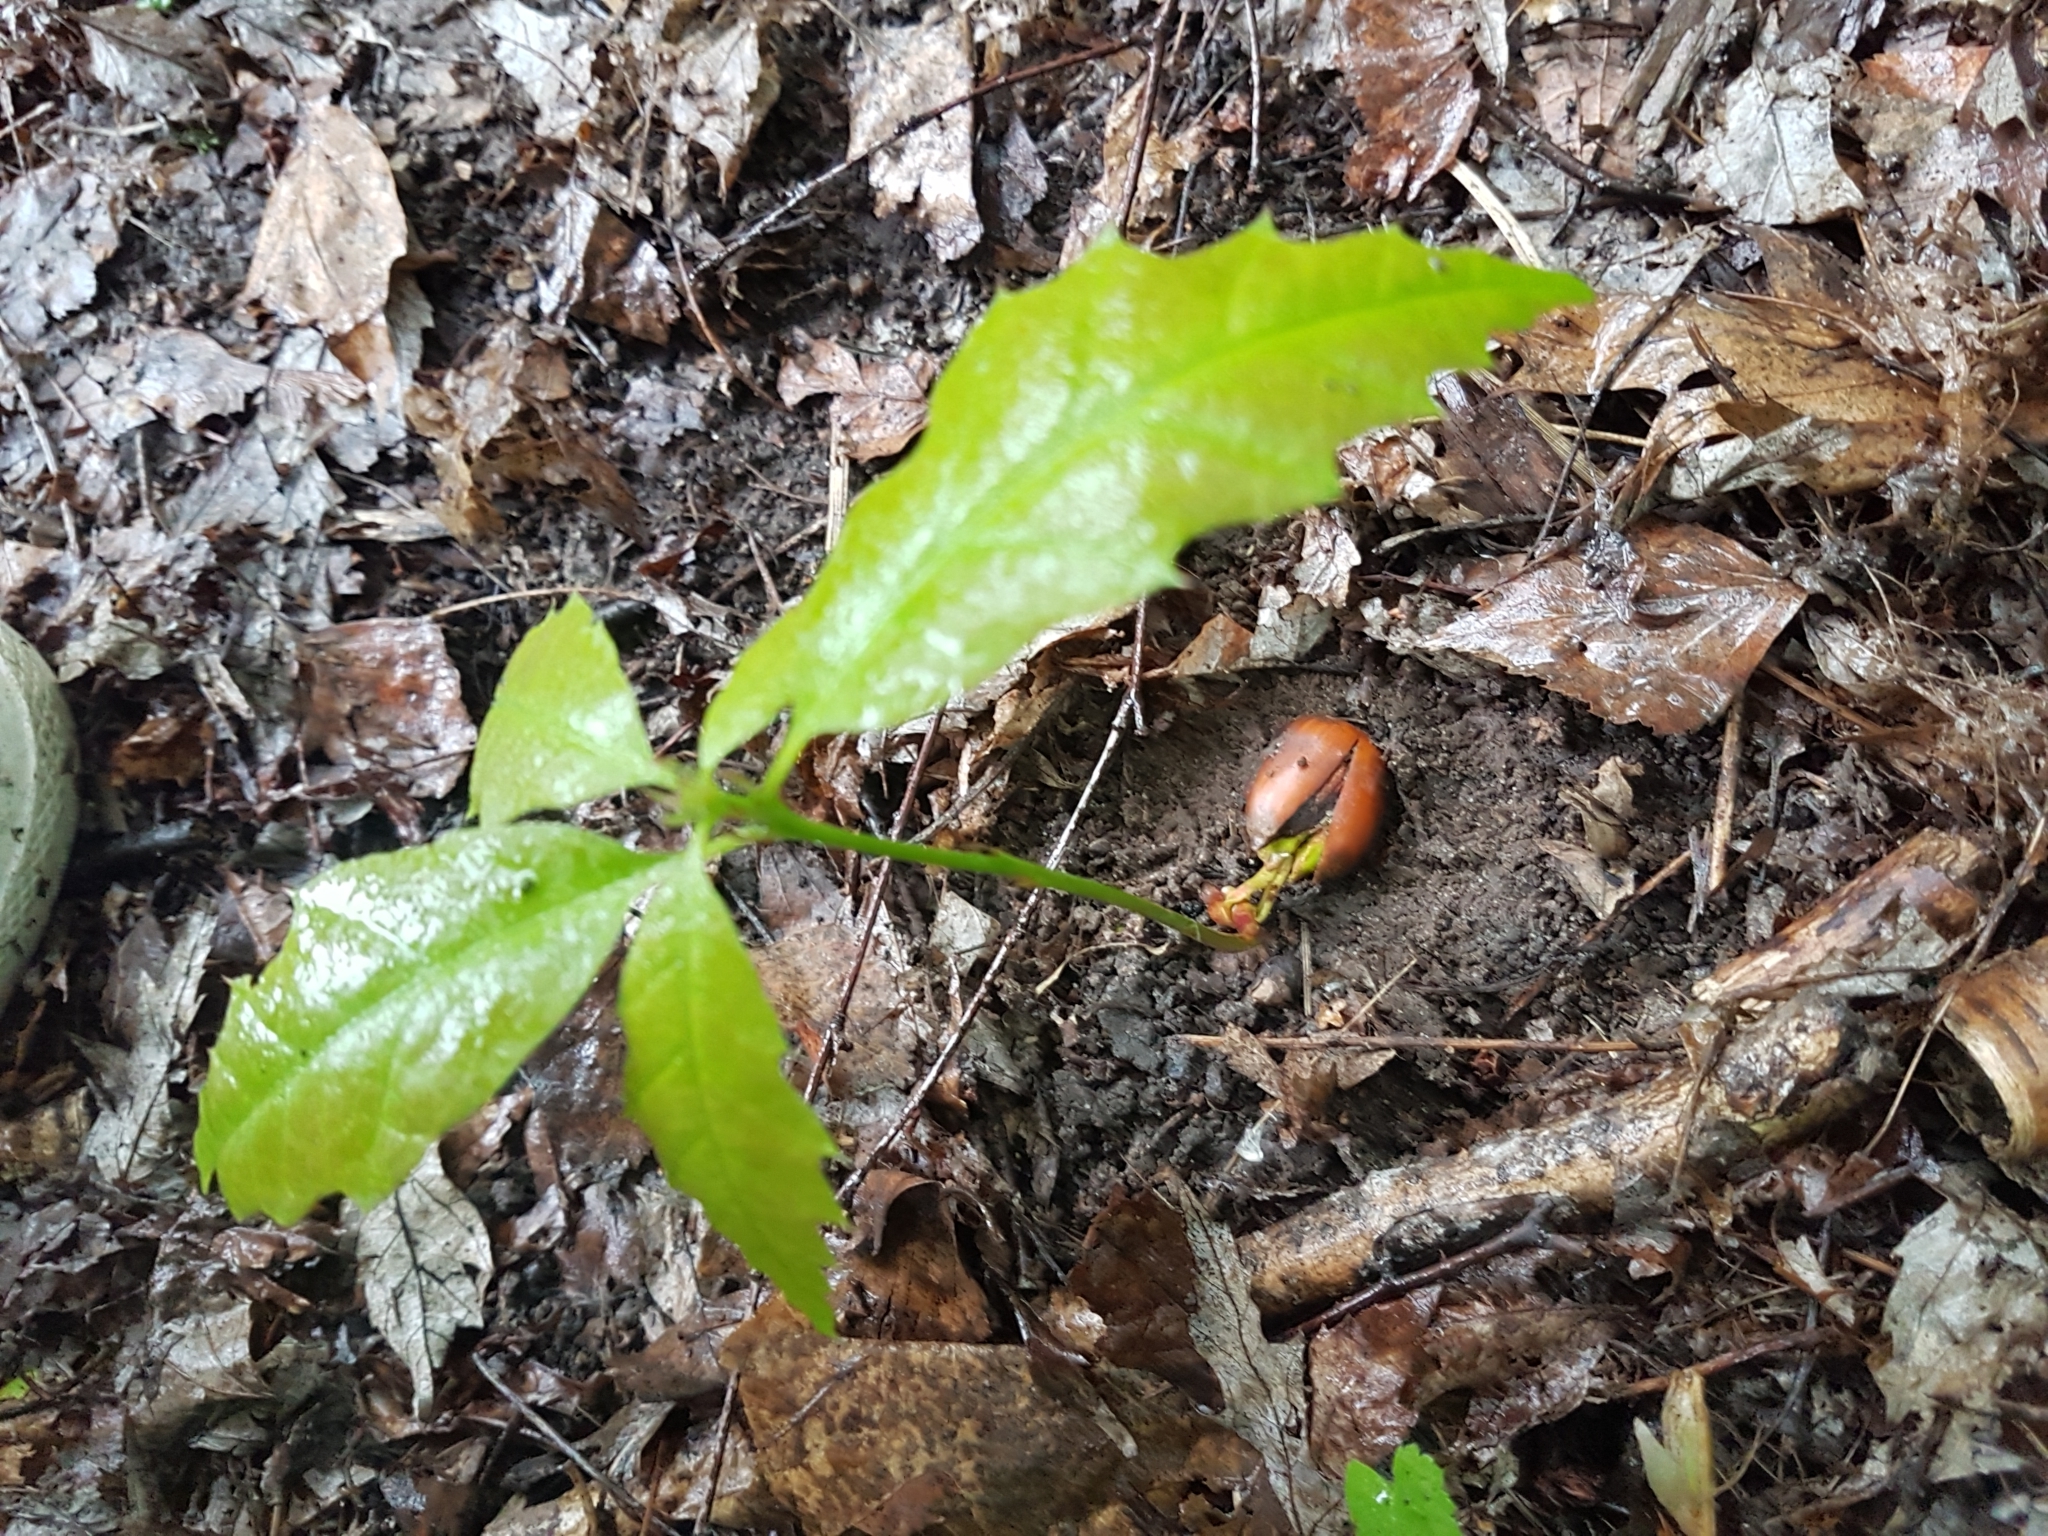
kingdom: Plantae
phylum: Tracheophyta
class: Magnoliopsida
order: Fagales
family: Fagaceae
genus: Quercus
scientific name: Quercus rubra
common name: Red oak
